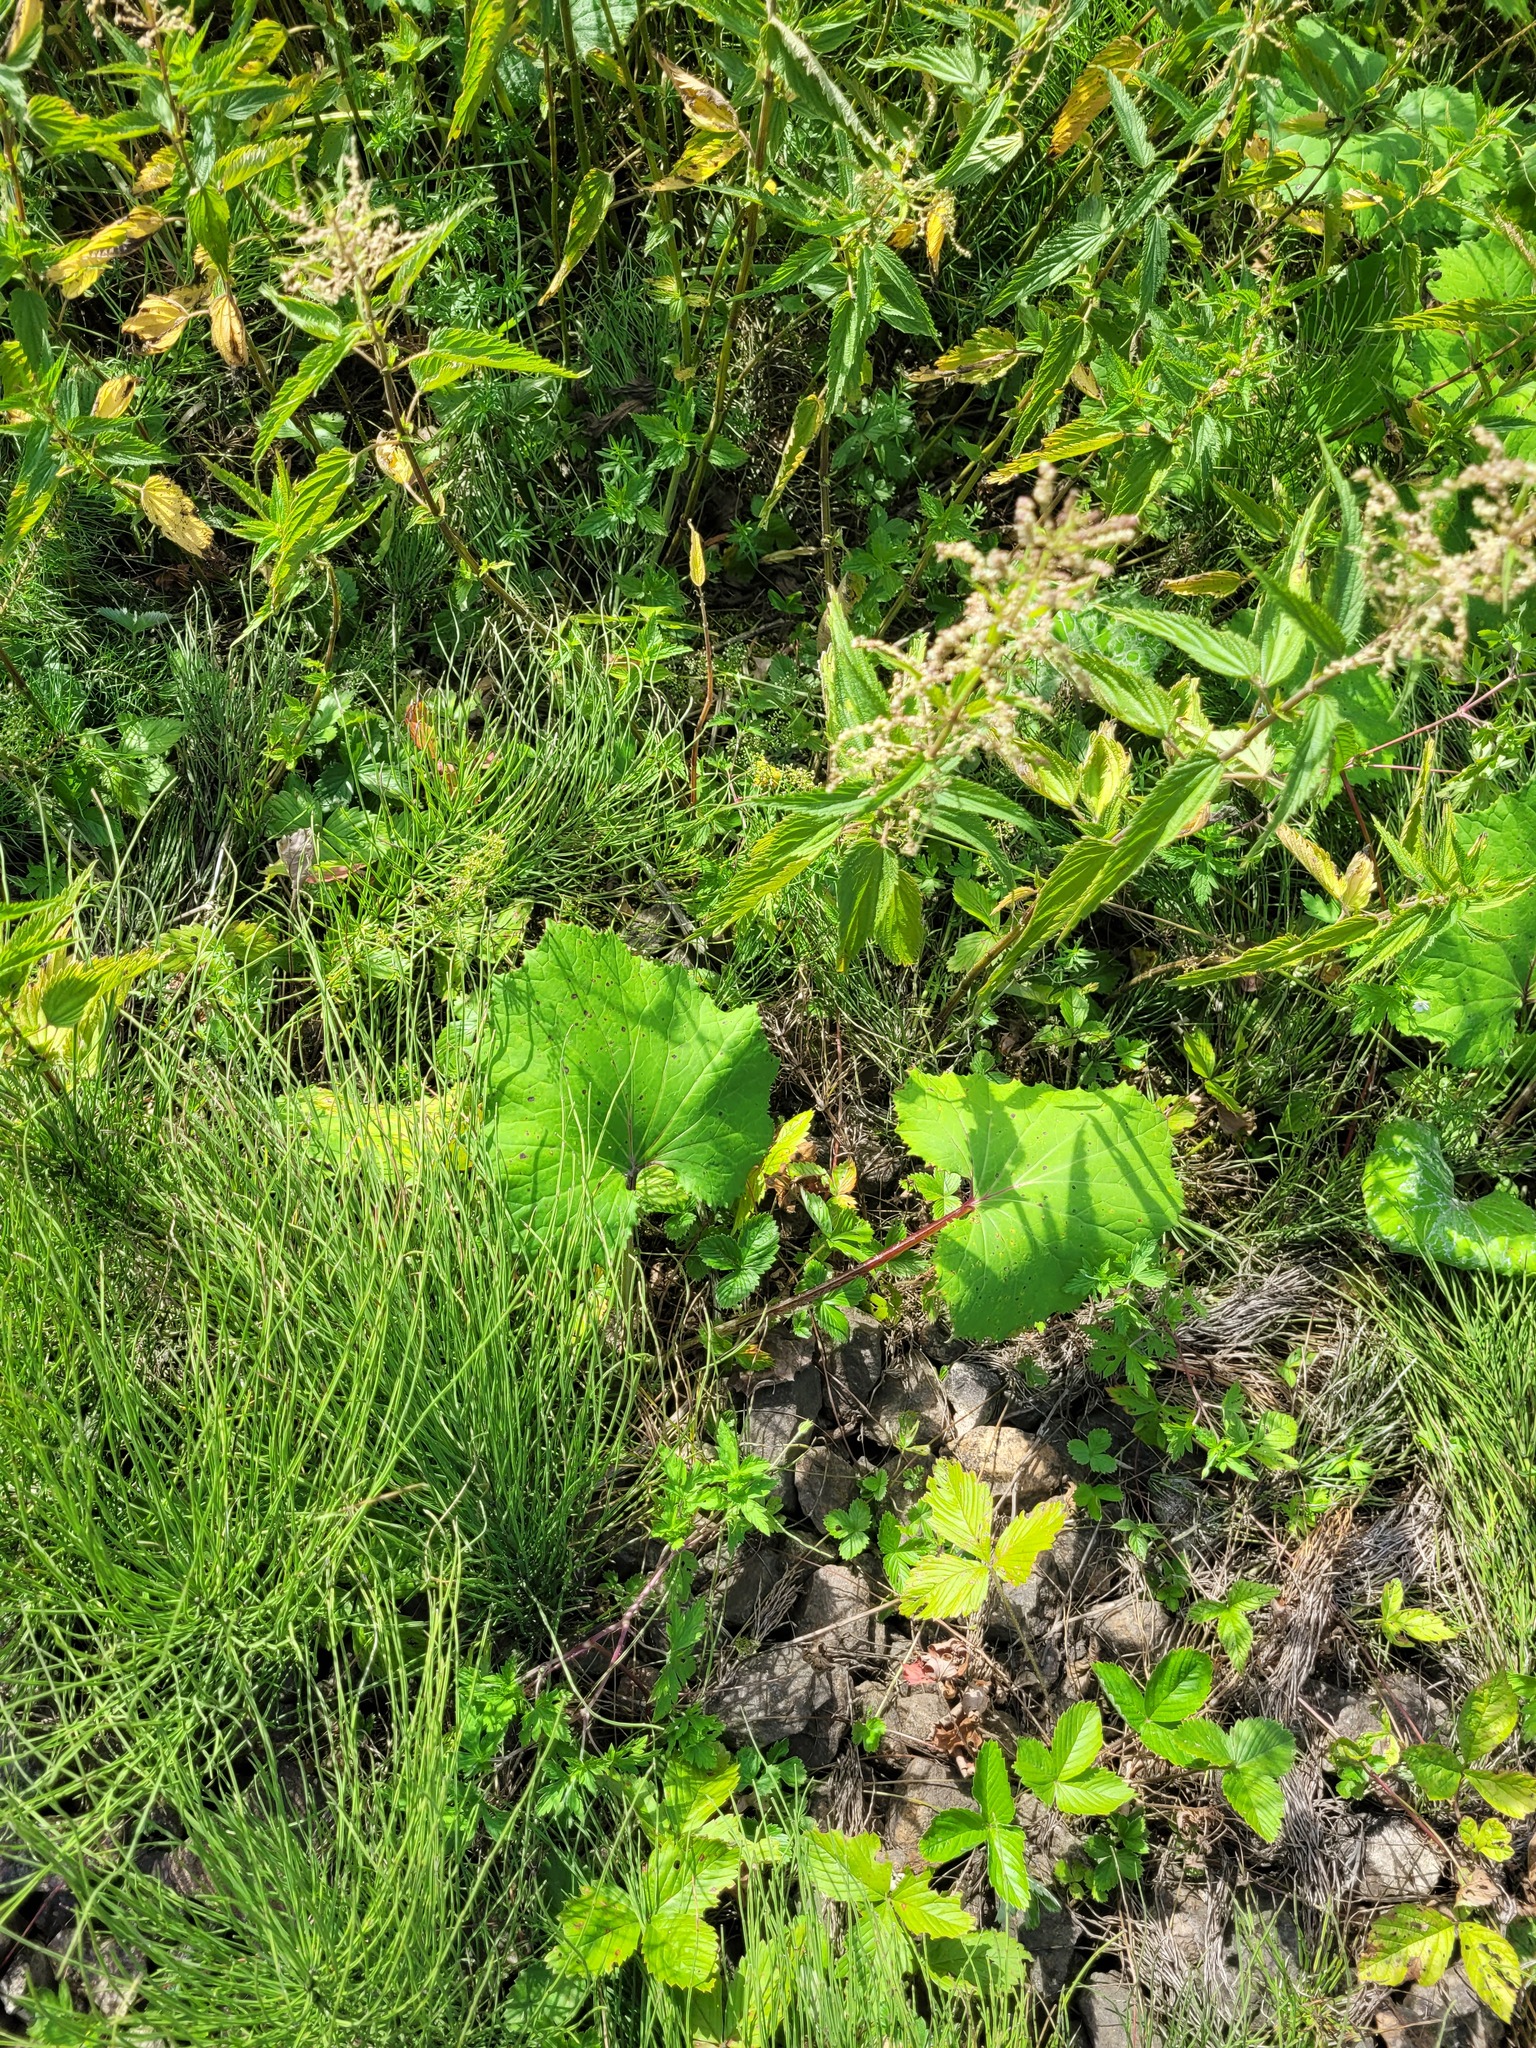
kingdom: Plantae
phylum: Tracheophyta
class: Magnoliopsida
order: Asterales
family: Asteraceae
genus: Tussilago
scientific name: Tussilago farfara
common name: Coltsfoot
